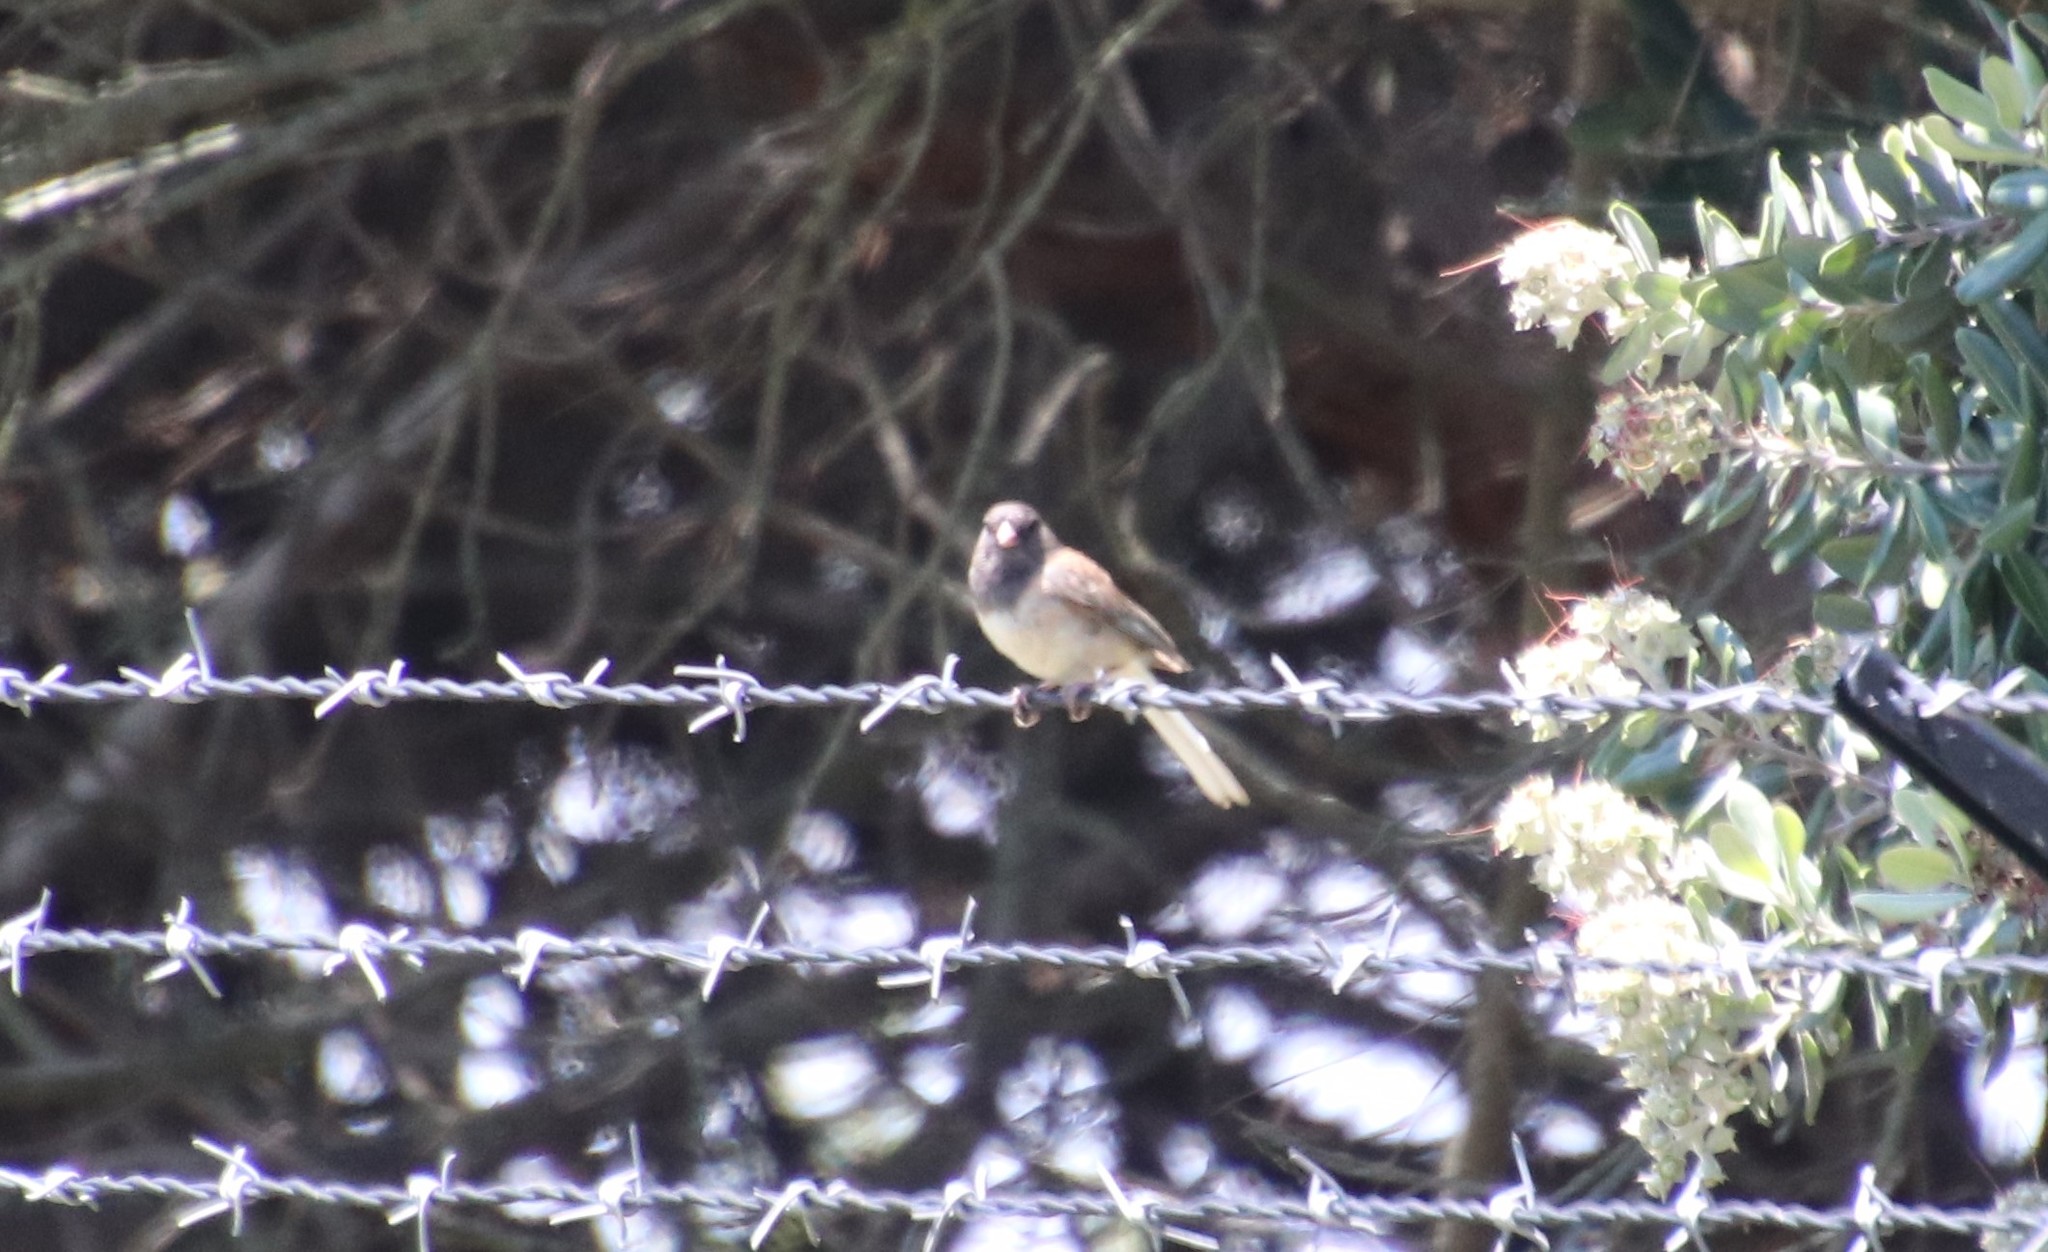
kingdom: Animalia
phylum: Chordata
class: Aves
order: Passeriformes
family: Passerellidae
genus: Junco
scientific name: Junco hyemalis
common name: Dark-eyed junco
